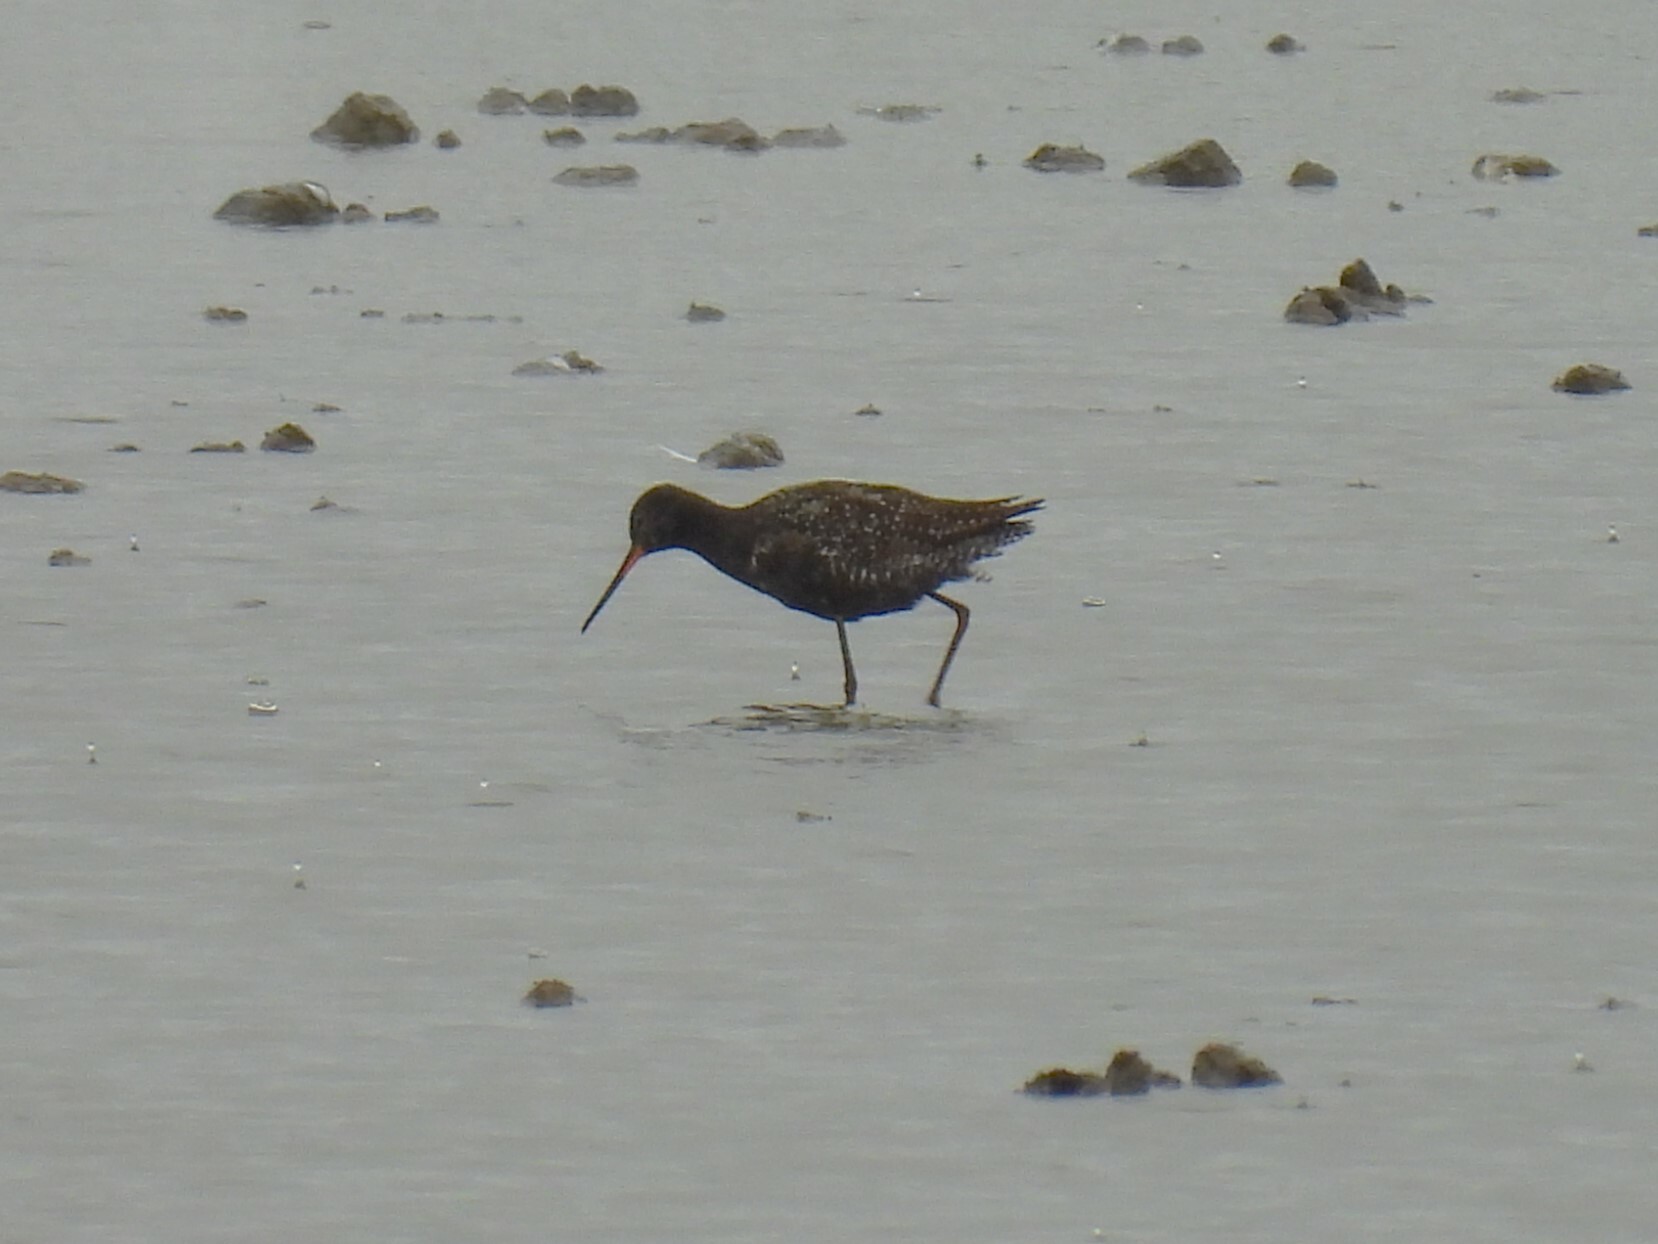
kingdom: Animalia
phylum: Chordata
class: Aves
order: Charadriiformes
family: Scolopacidae
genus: Tringa
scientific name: Tringa erythropus
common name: Spotted redshank
